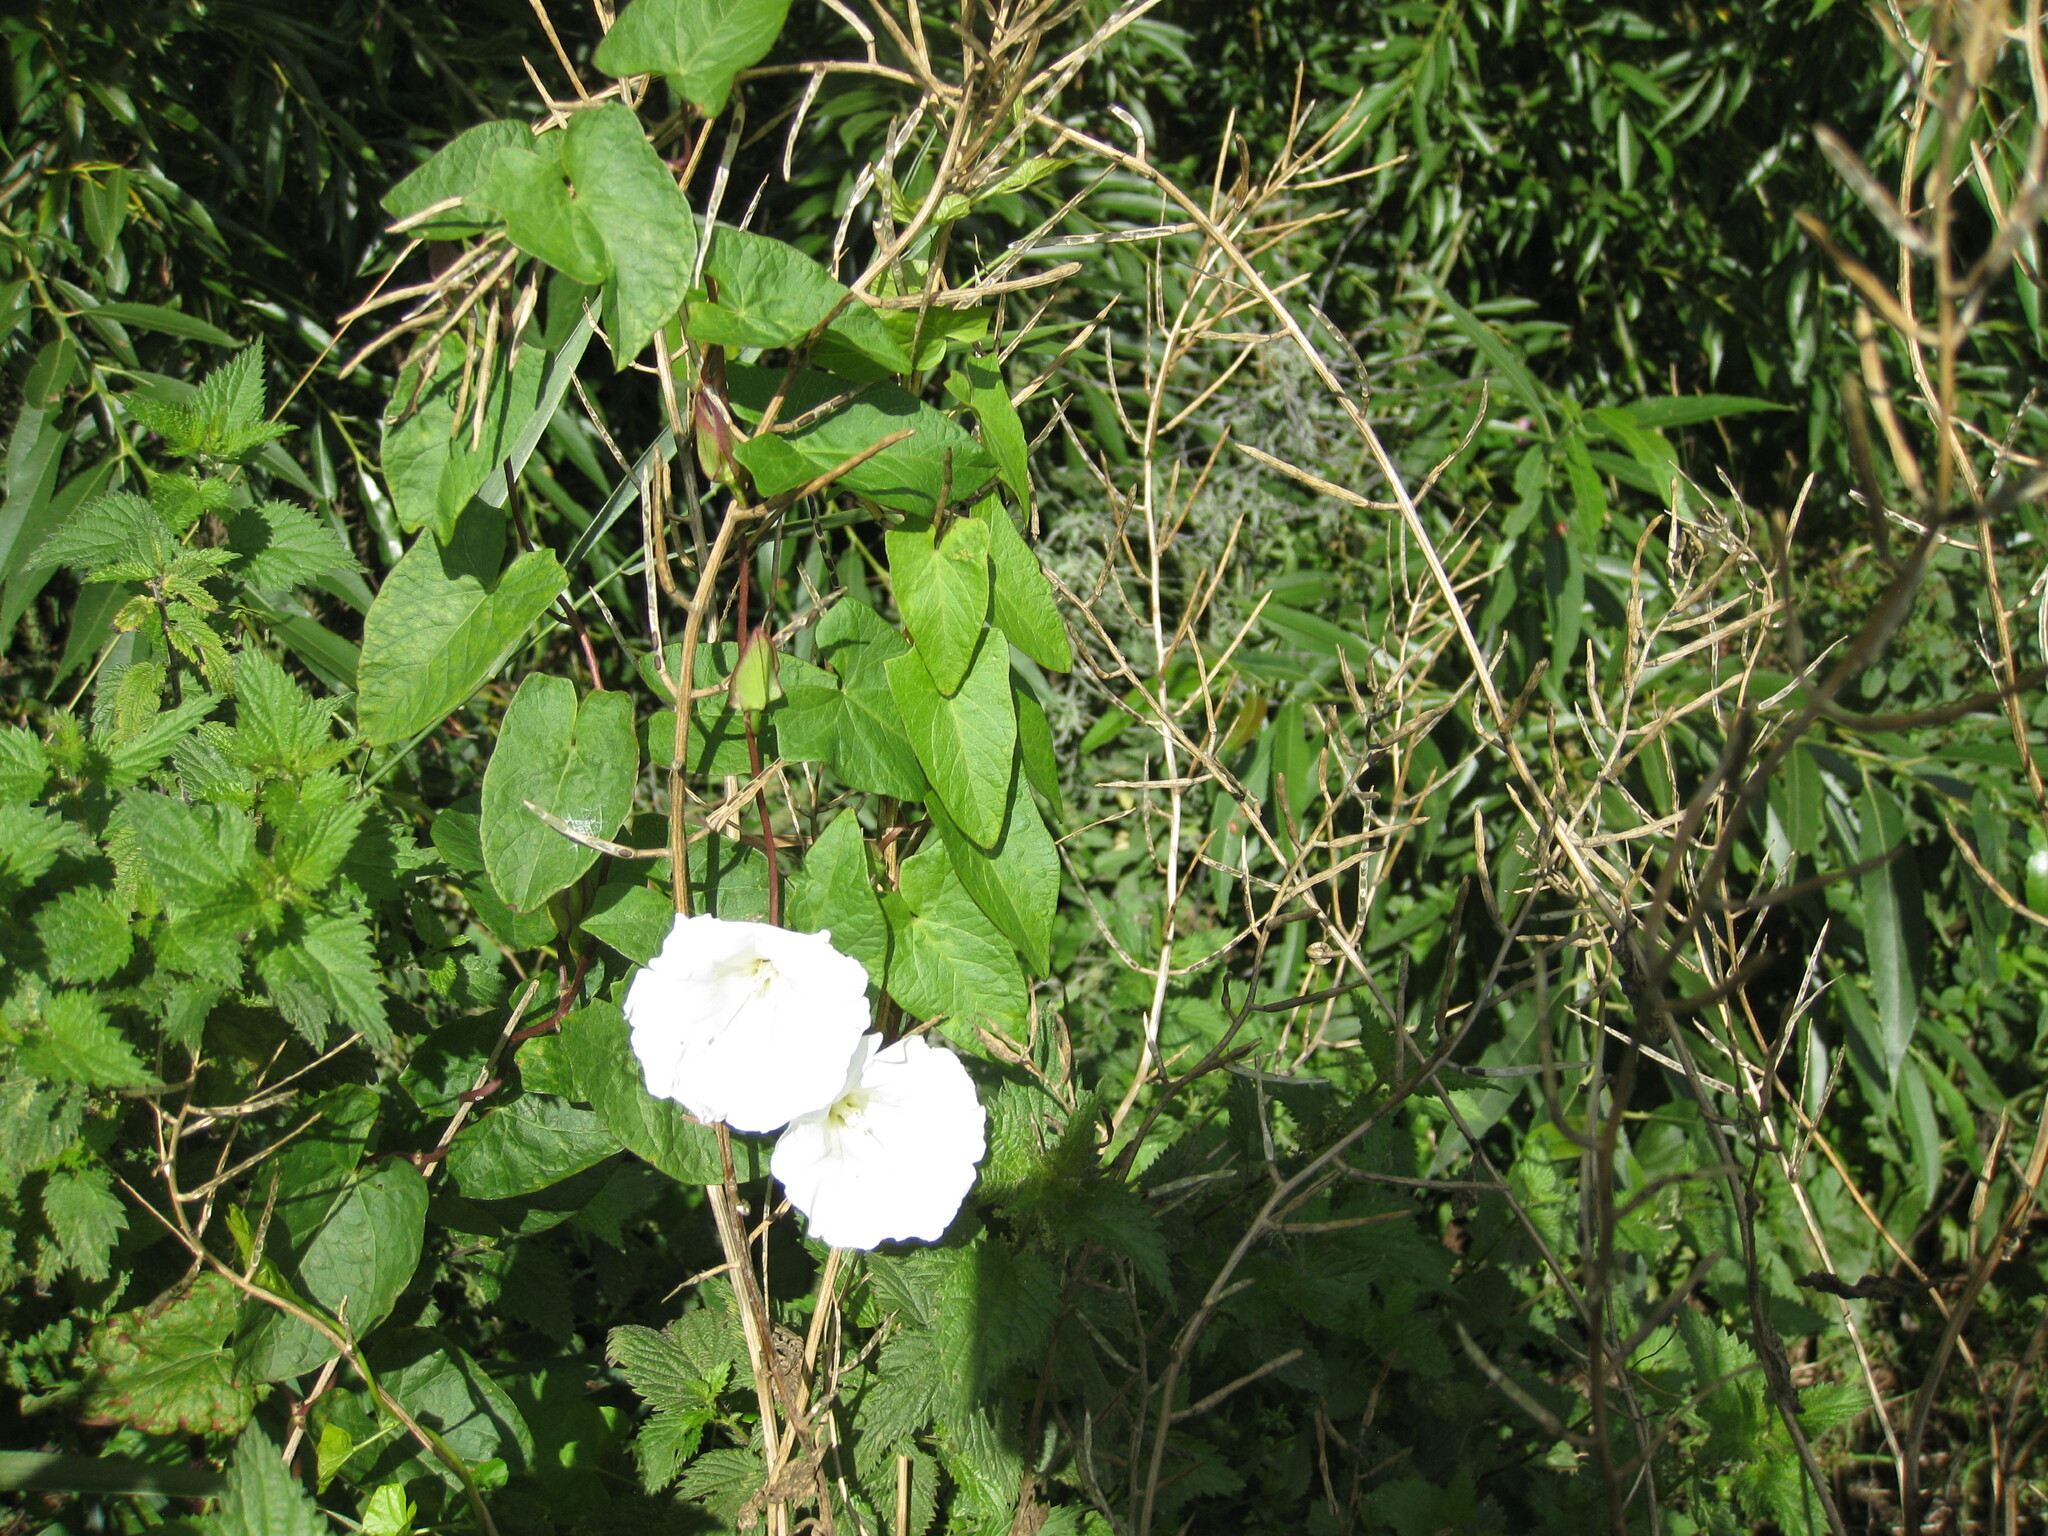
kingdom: Plantae
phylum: Tracheophyta
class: Magnoliopsida
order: Solanales
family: Convolvulaceae
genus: Calystegia
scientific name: Calystegia sepium
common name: Hedge bindweed
